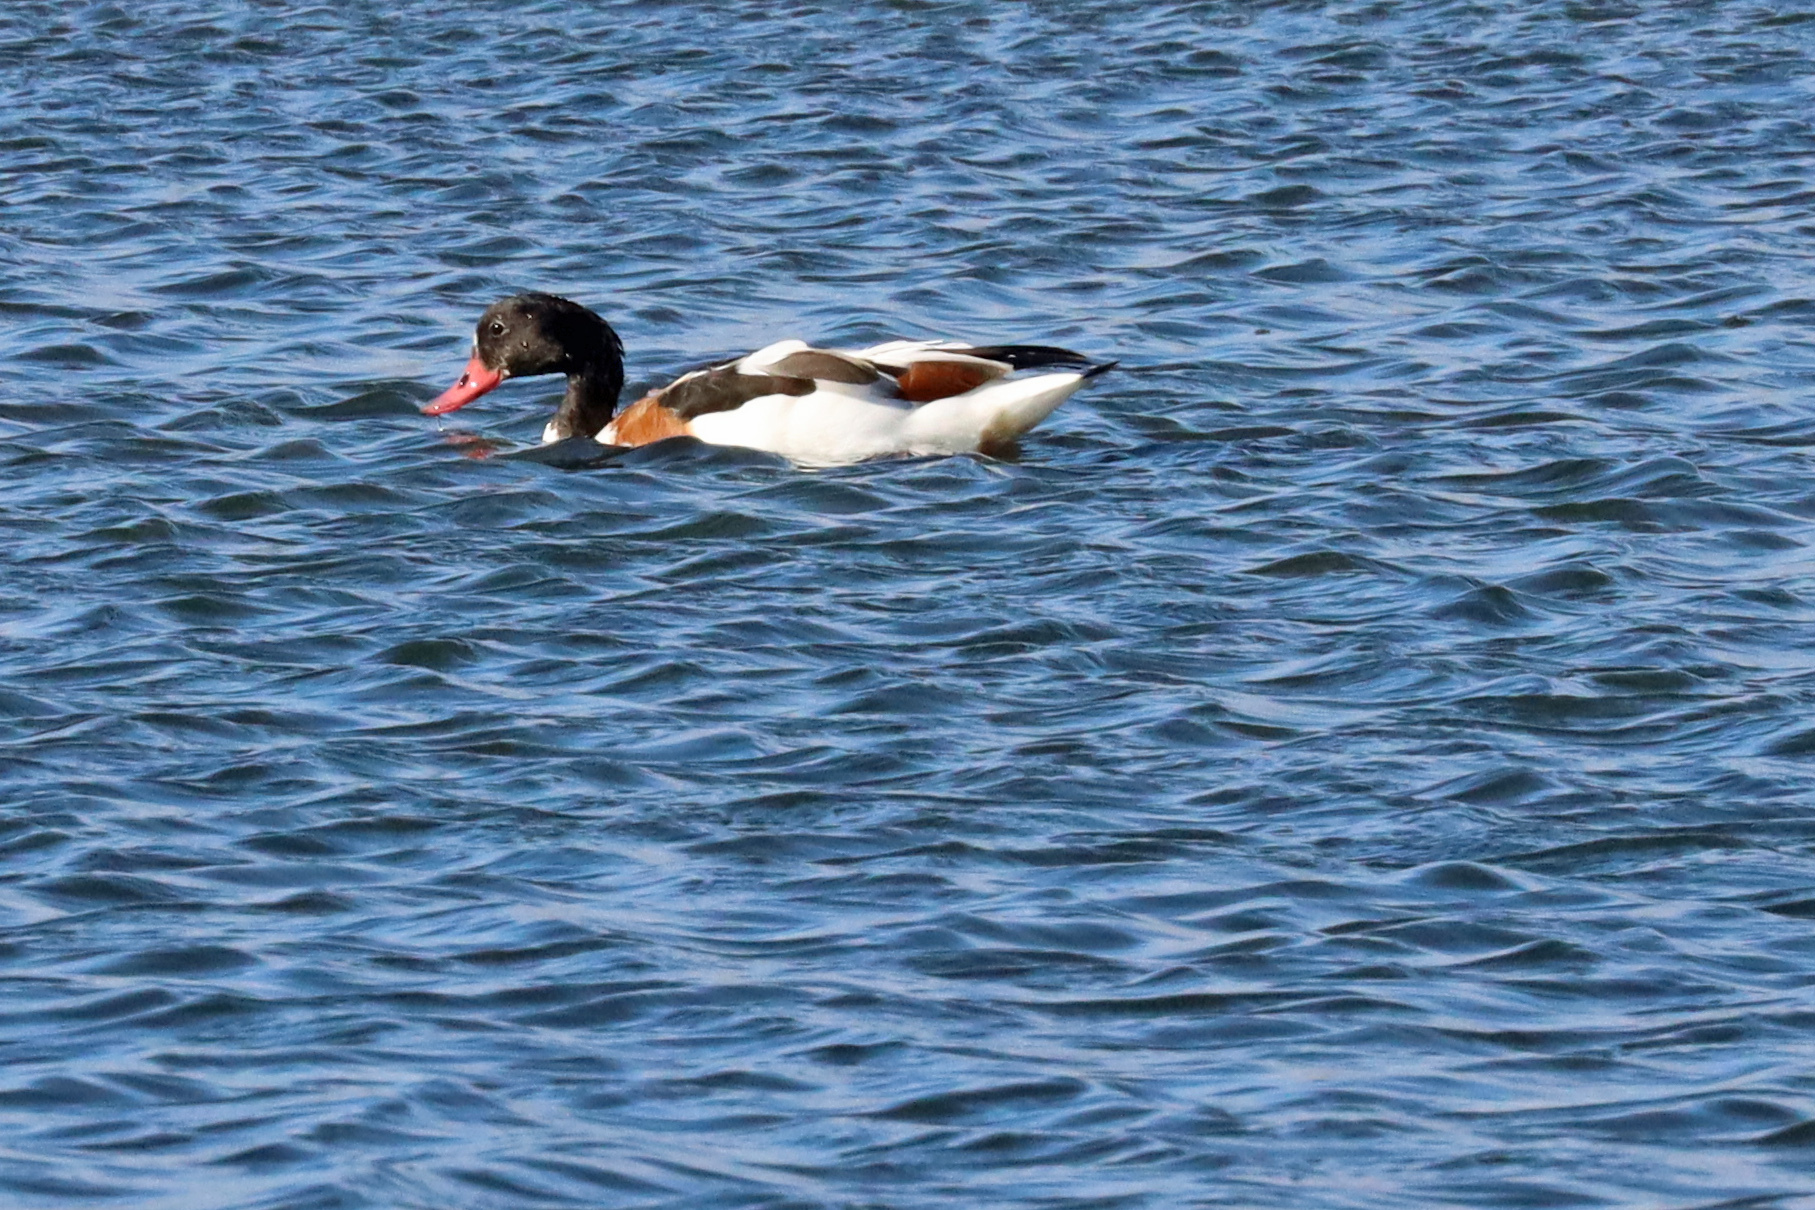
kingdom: Animalia
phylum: Chordata
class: Aves
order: Anseriformes
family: Anatidae
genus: Tadorna
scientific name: Tadorna tadorna
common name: Common shelduck
